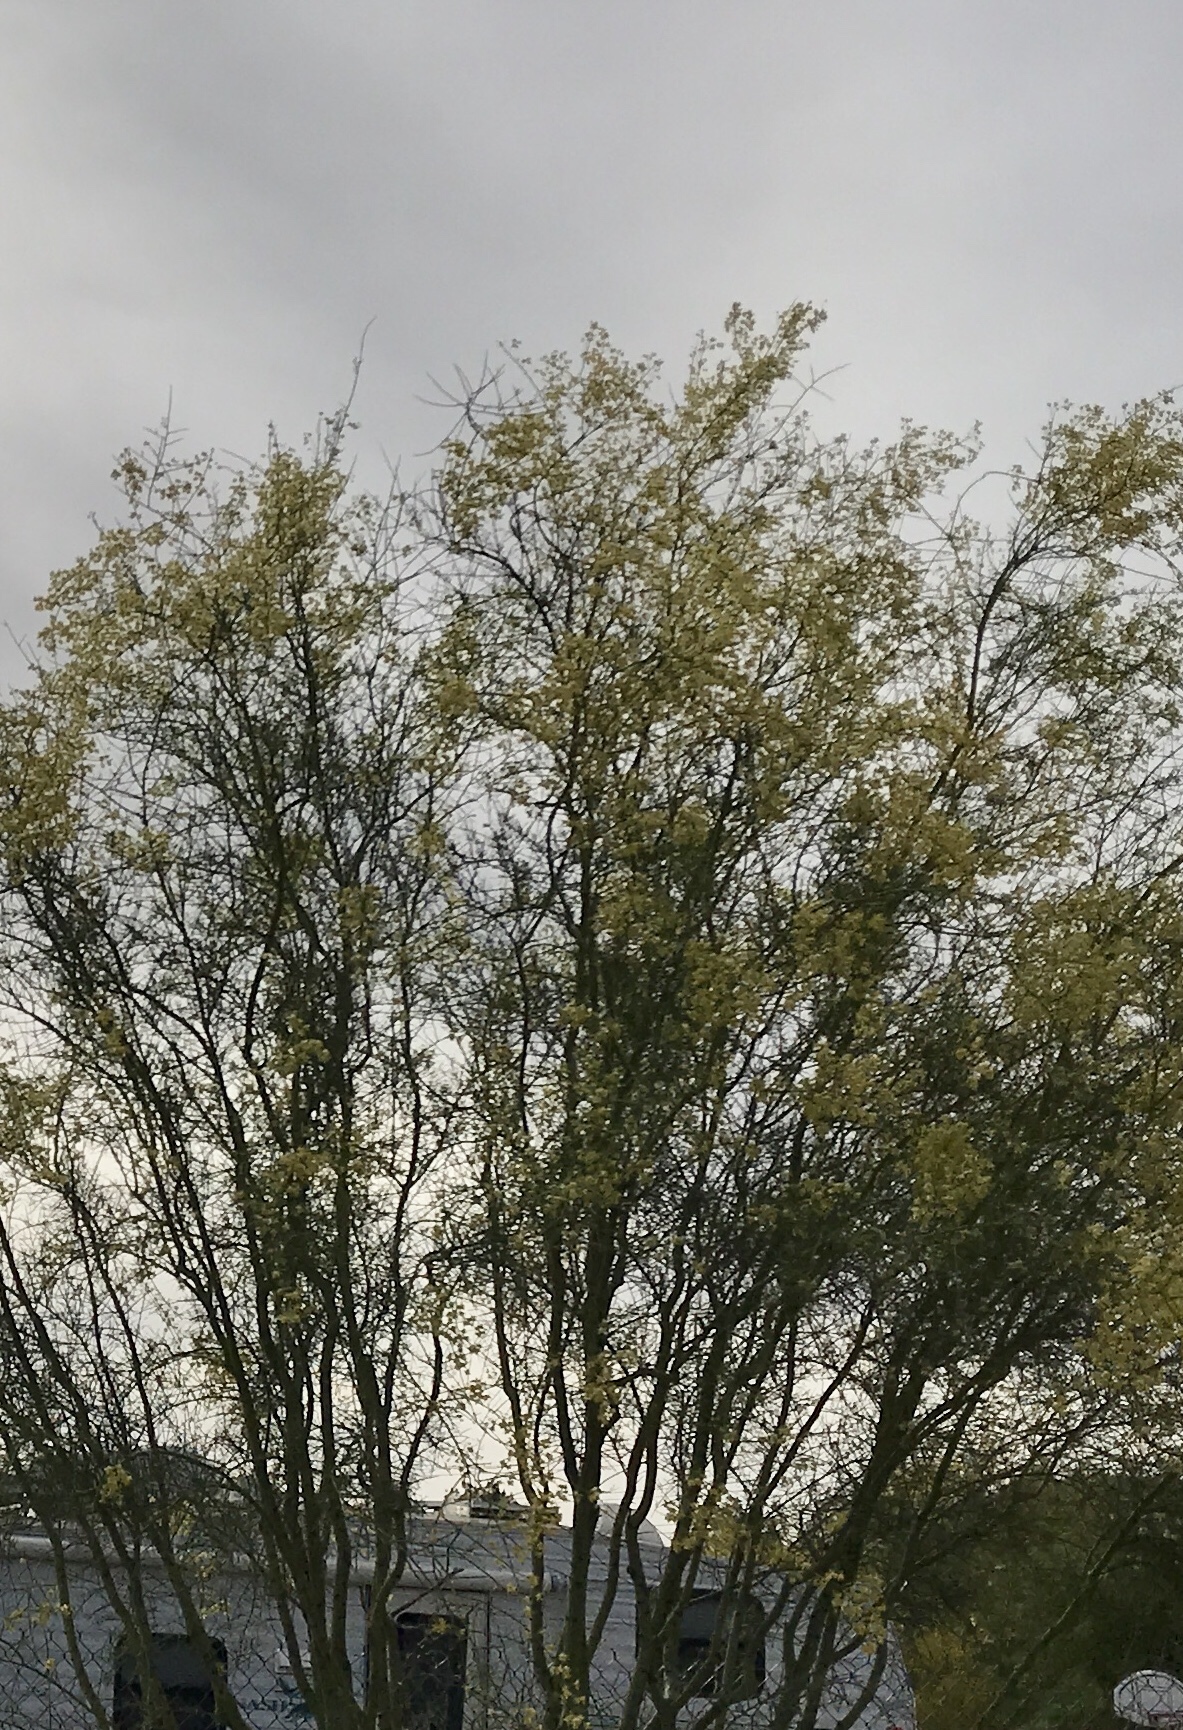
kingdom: Plantae
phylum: Tracheophyta
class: Magnoliopsida
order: Fabales
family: Fabaceae
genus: Parkinsonia
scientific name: Parkinsonia aculeata
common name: Jerusalem thorn
